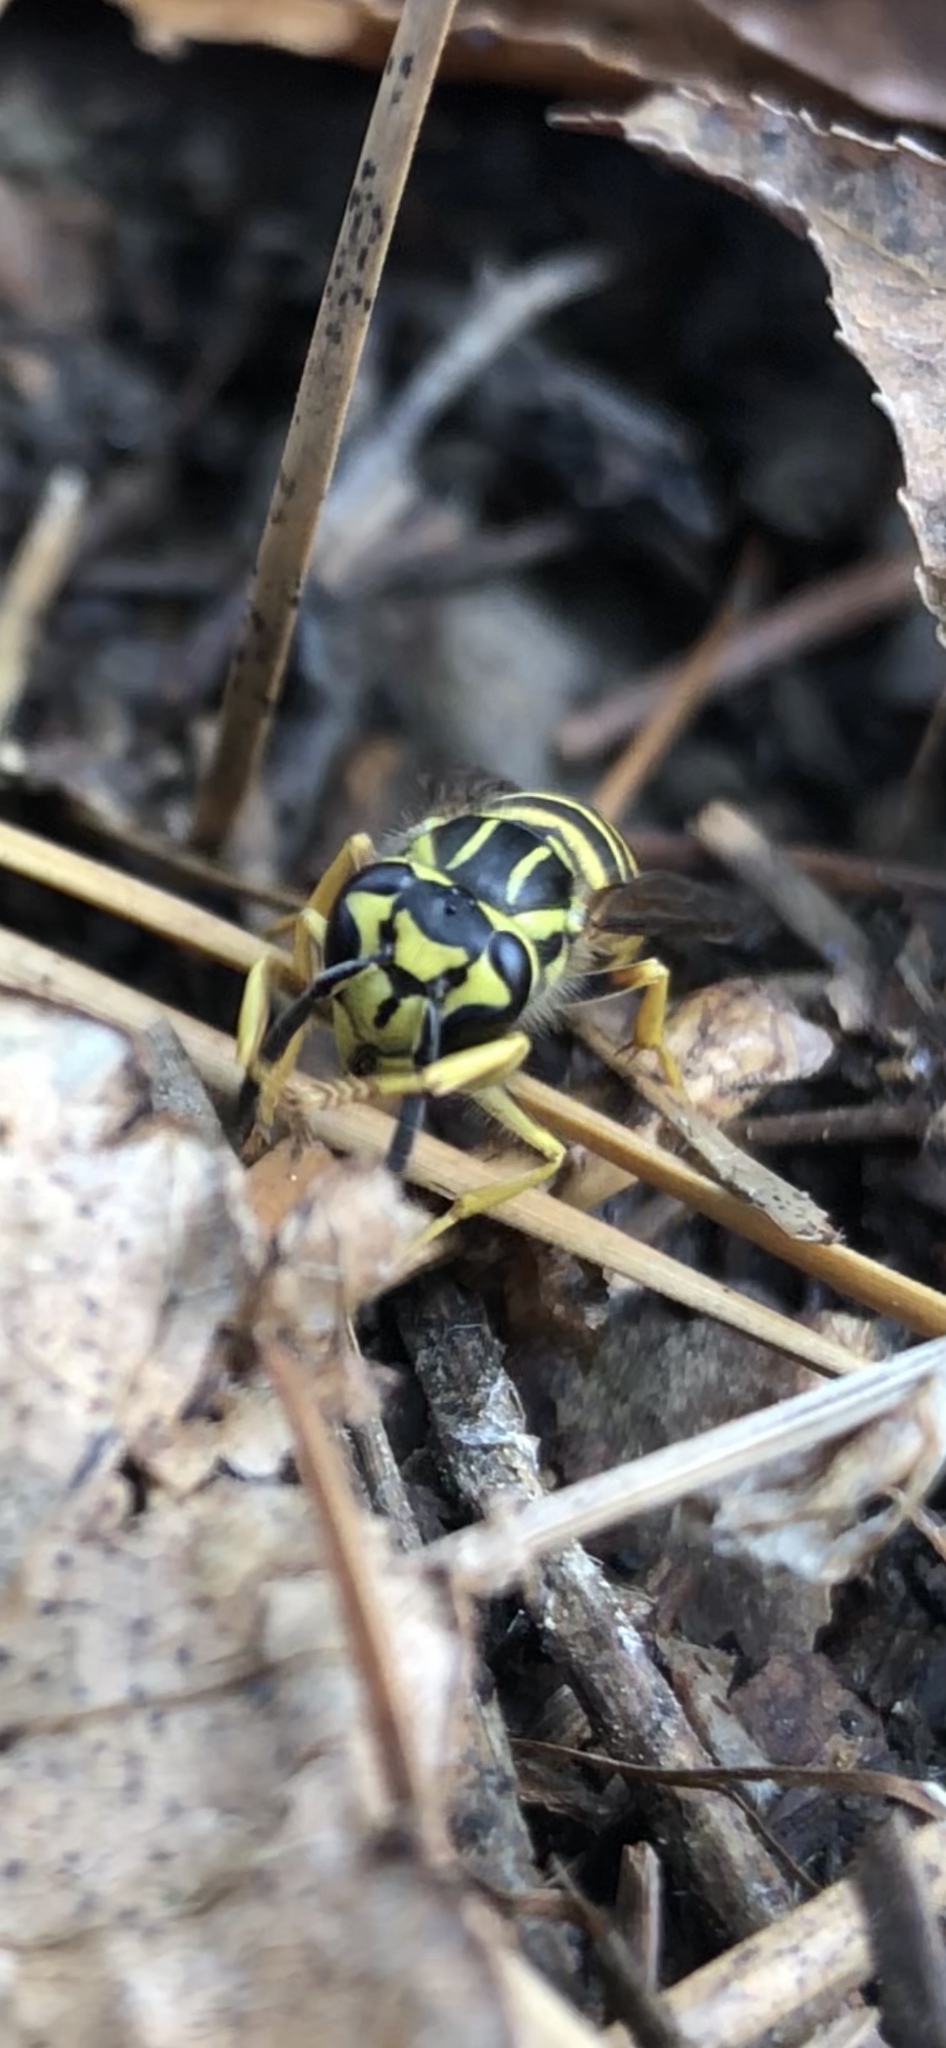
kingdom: Animalia
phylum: Arthropoda
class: Insecta
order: Hymenoptera
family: Vespidae
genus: Vespula
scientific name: Vespula squamosa
